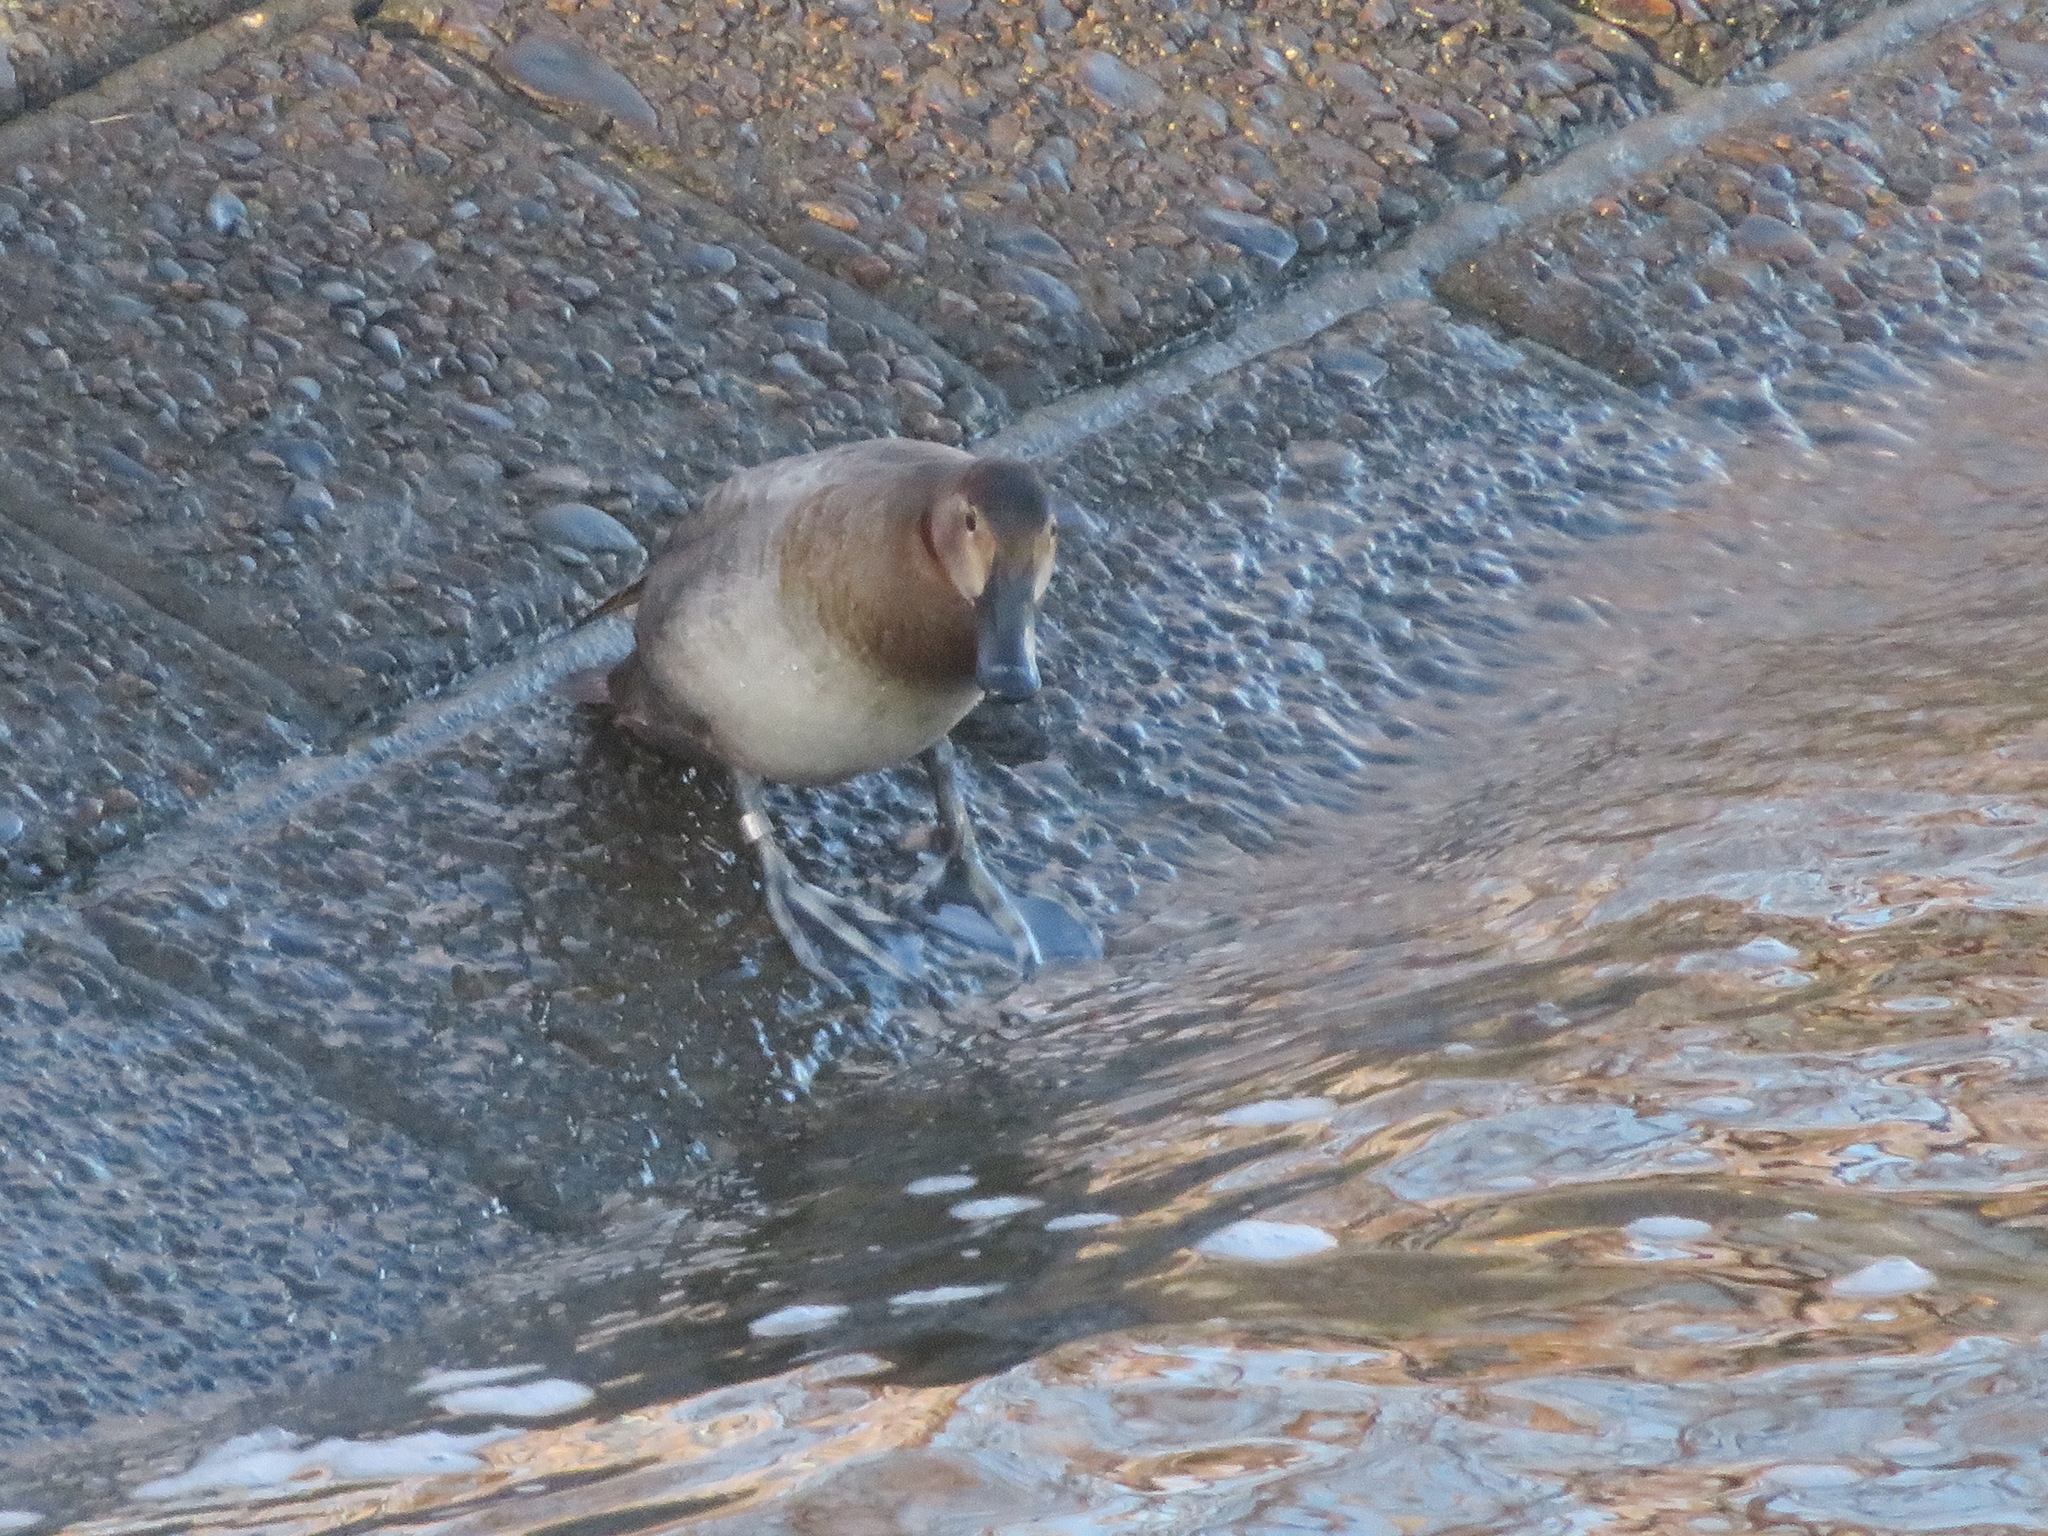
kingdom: Animalia
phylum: Chordata
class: Aves
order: Anseriformes
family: Anatidae
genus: Aythya
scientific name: Aythya ferina
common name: Common pochard
